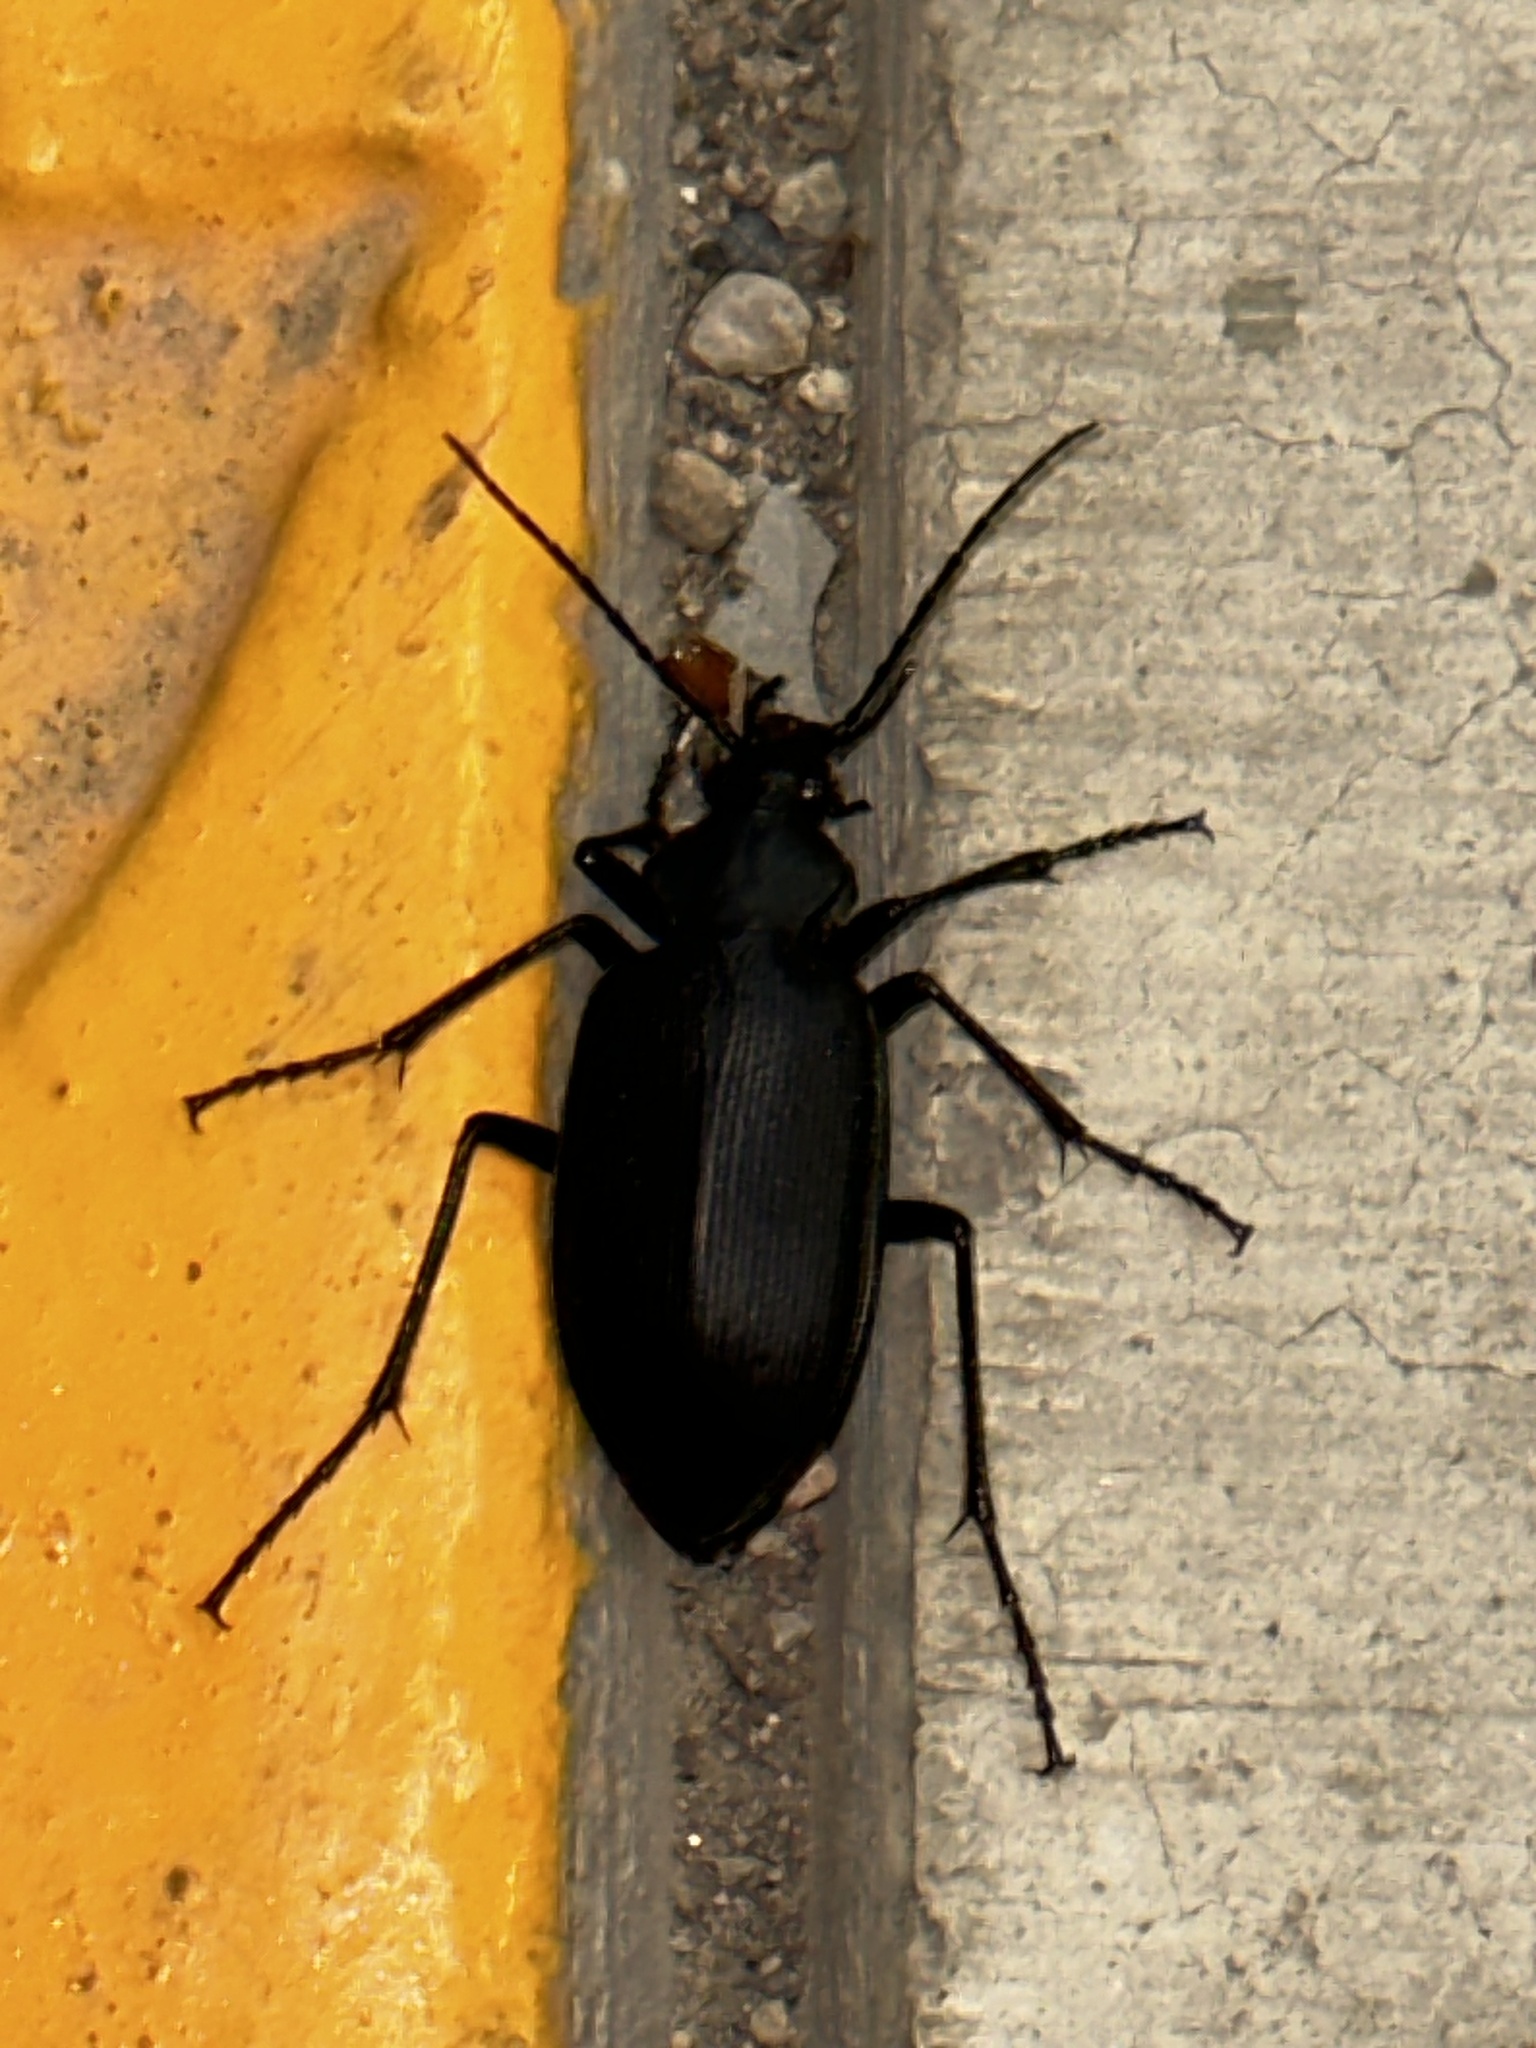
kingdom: Animalia
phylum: Arthropoda
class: Insecta
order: Coleoptera
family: Carabidae
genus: Calosoma
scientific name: Calosoma angulatum
